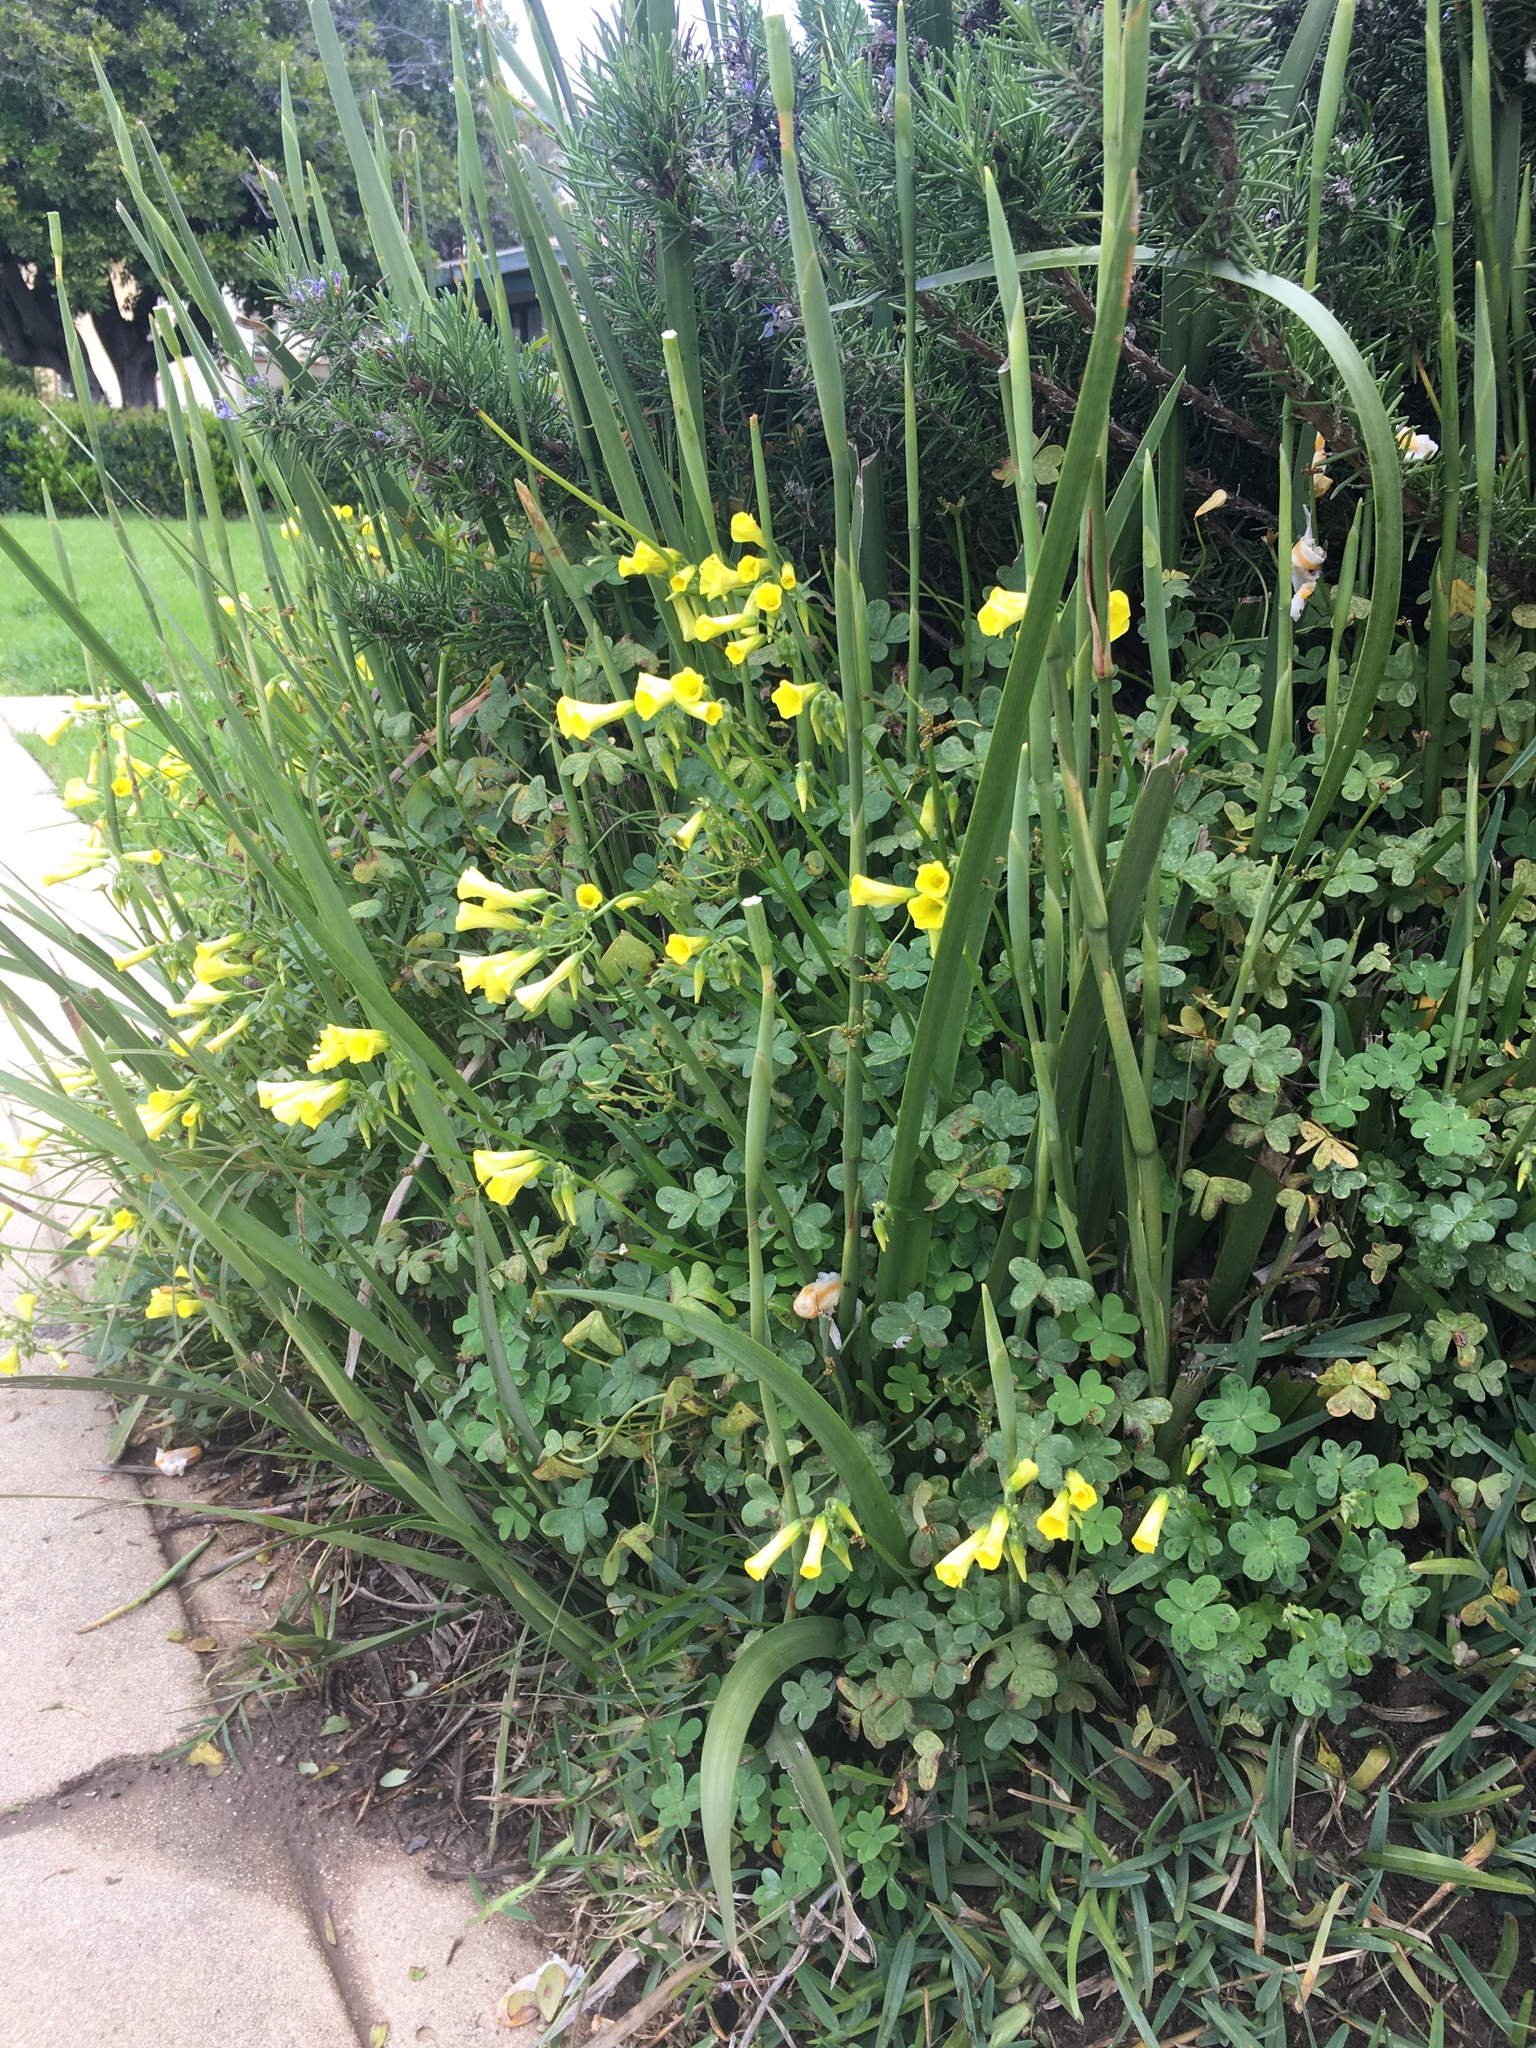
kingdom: Plantae
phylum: Tracheophyta
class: Magnoliopsida
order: Oxalidales
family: Oxalidaceae
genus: Oxalis
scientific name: Oxalis pes-caprae
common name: Bermuda-buttercup
